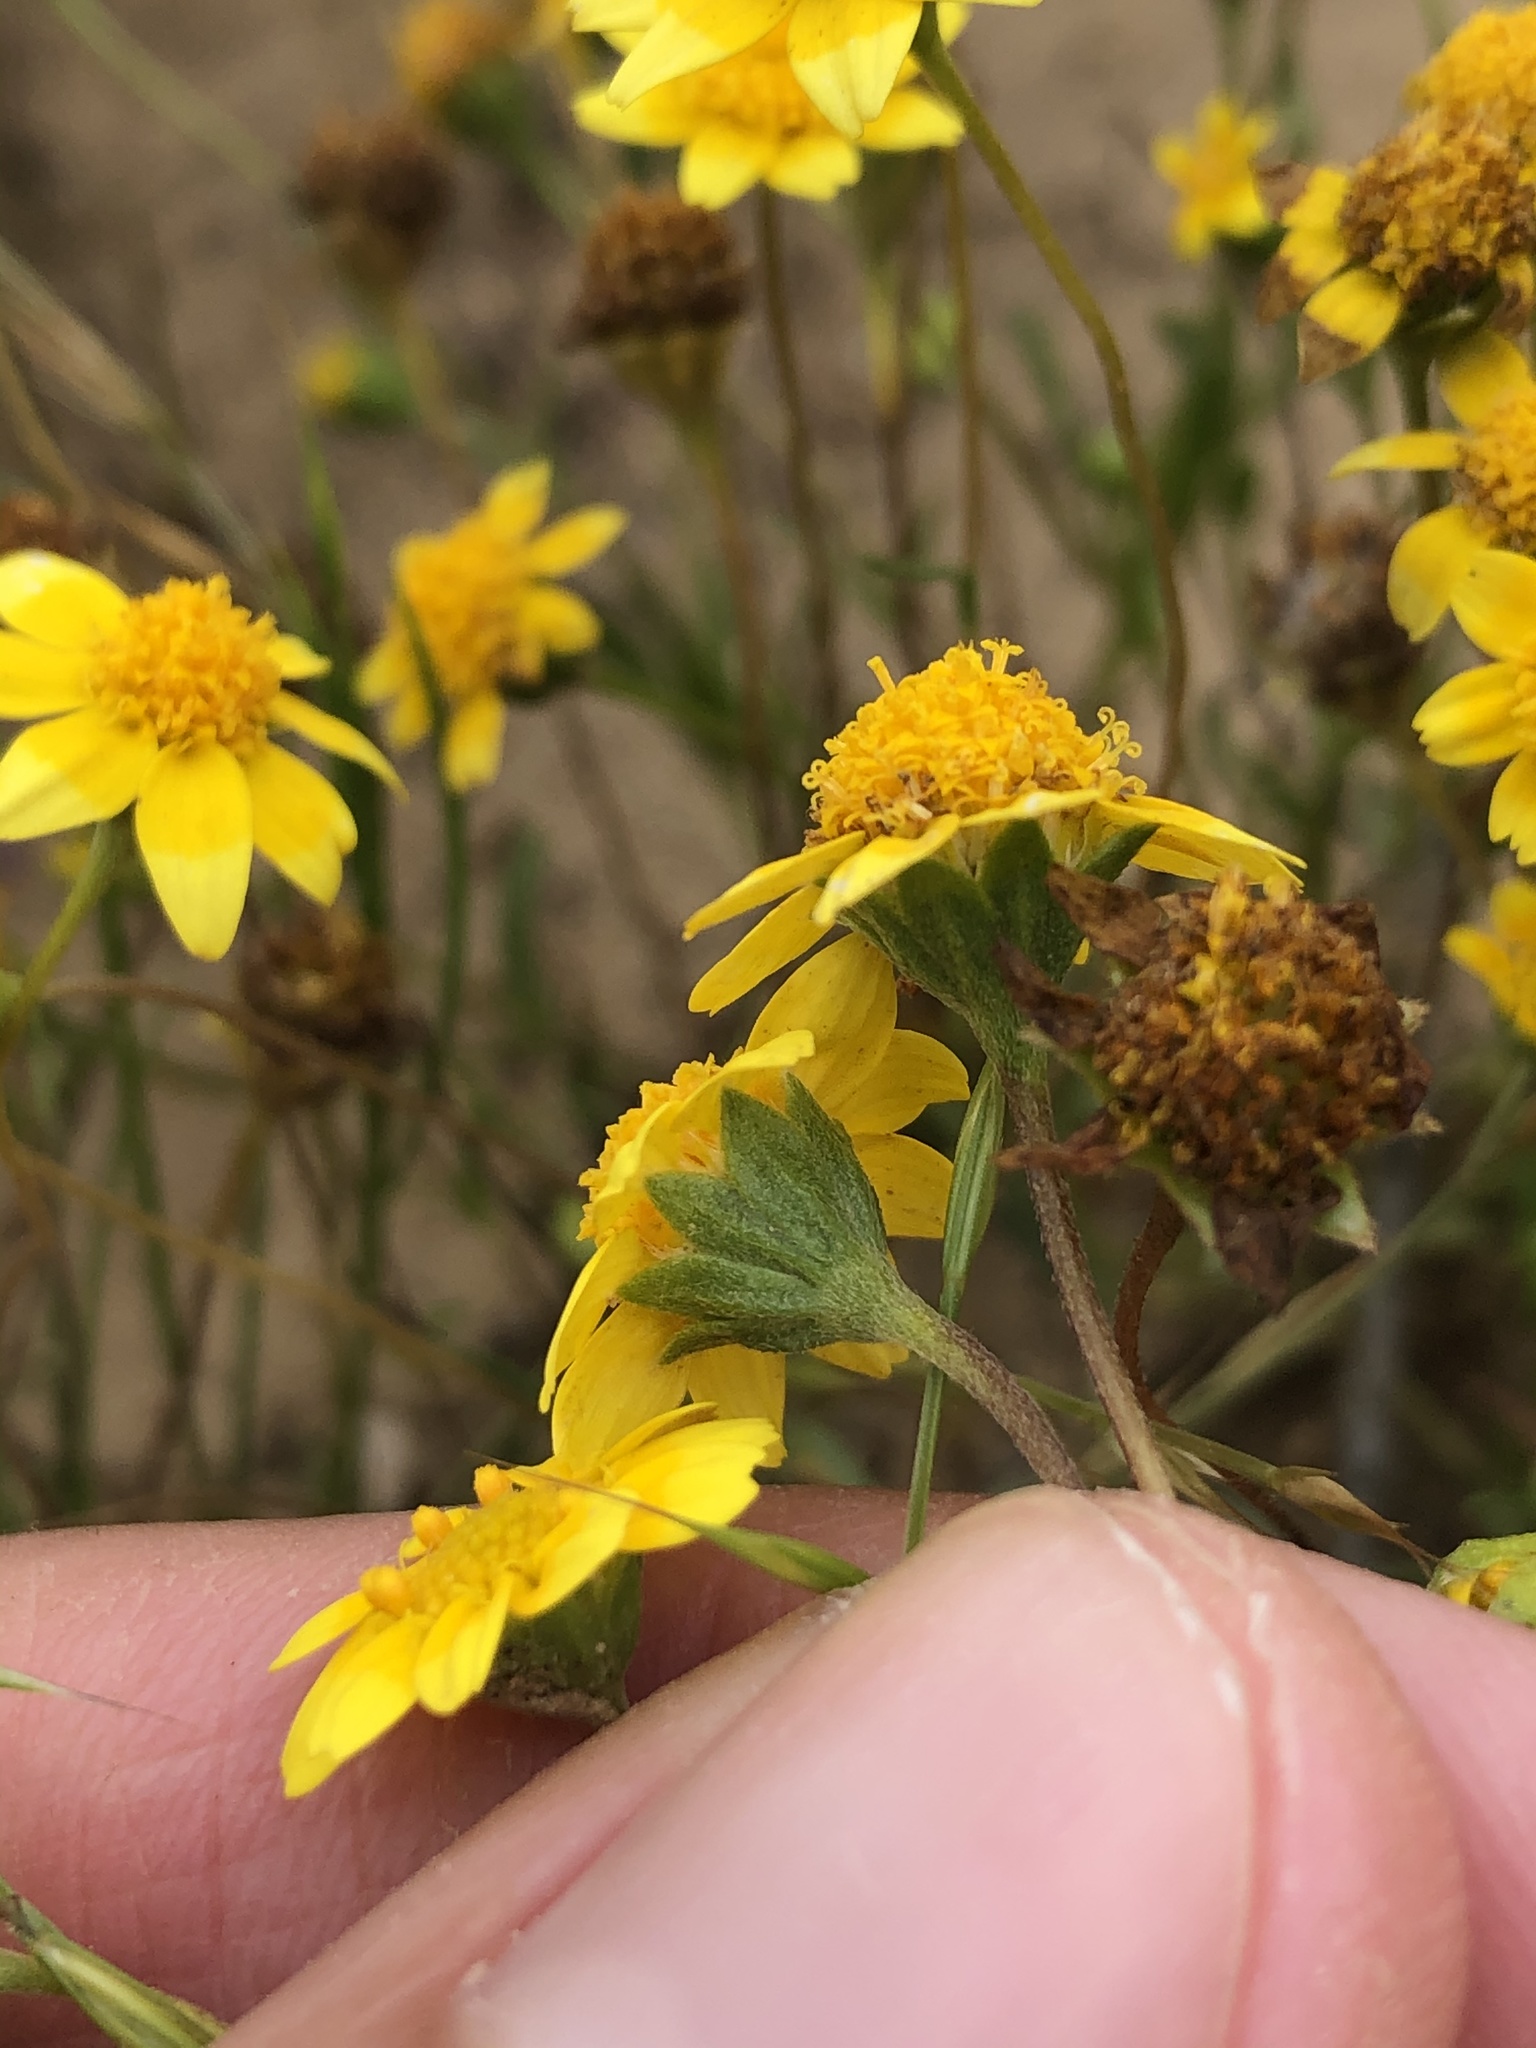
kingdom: Plantae
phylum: Tracheophyta
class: Magnoliopsida
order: Asterales
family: Asteraceae
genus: Lasthenia
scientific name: Lasthenia gracilis
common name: Common goldfields
